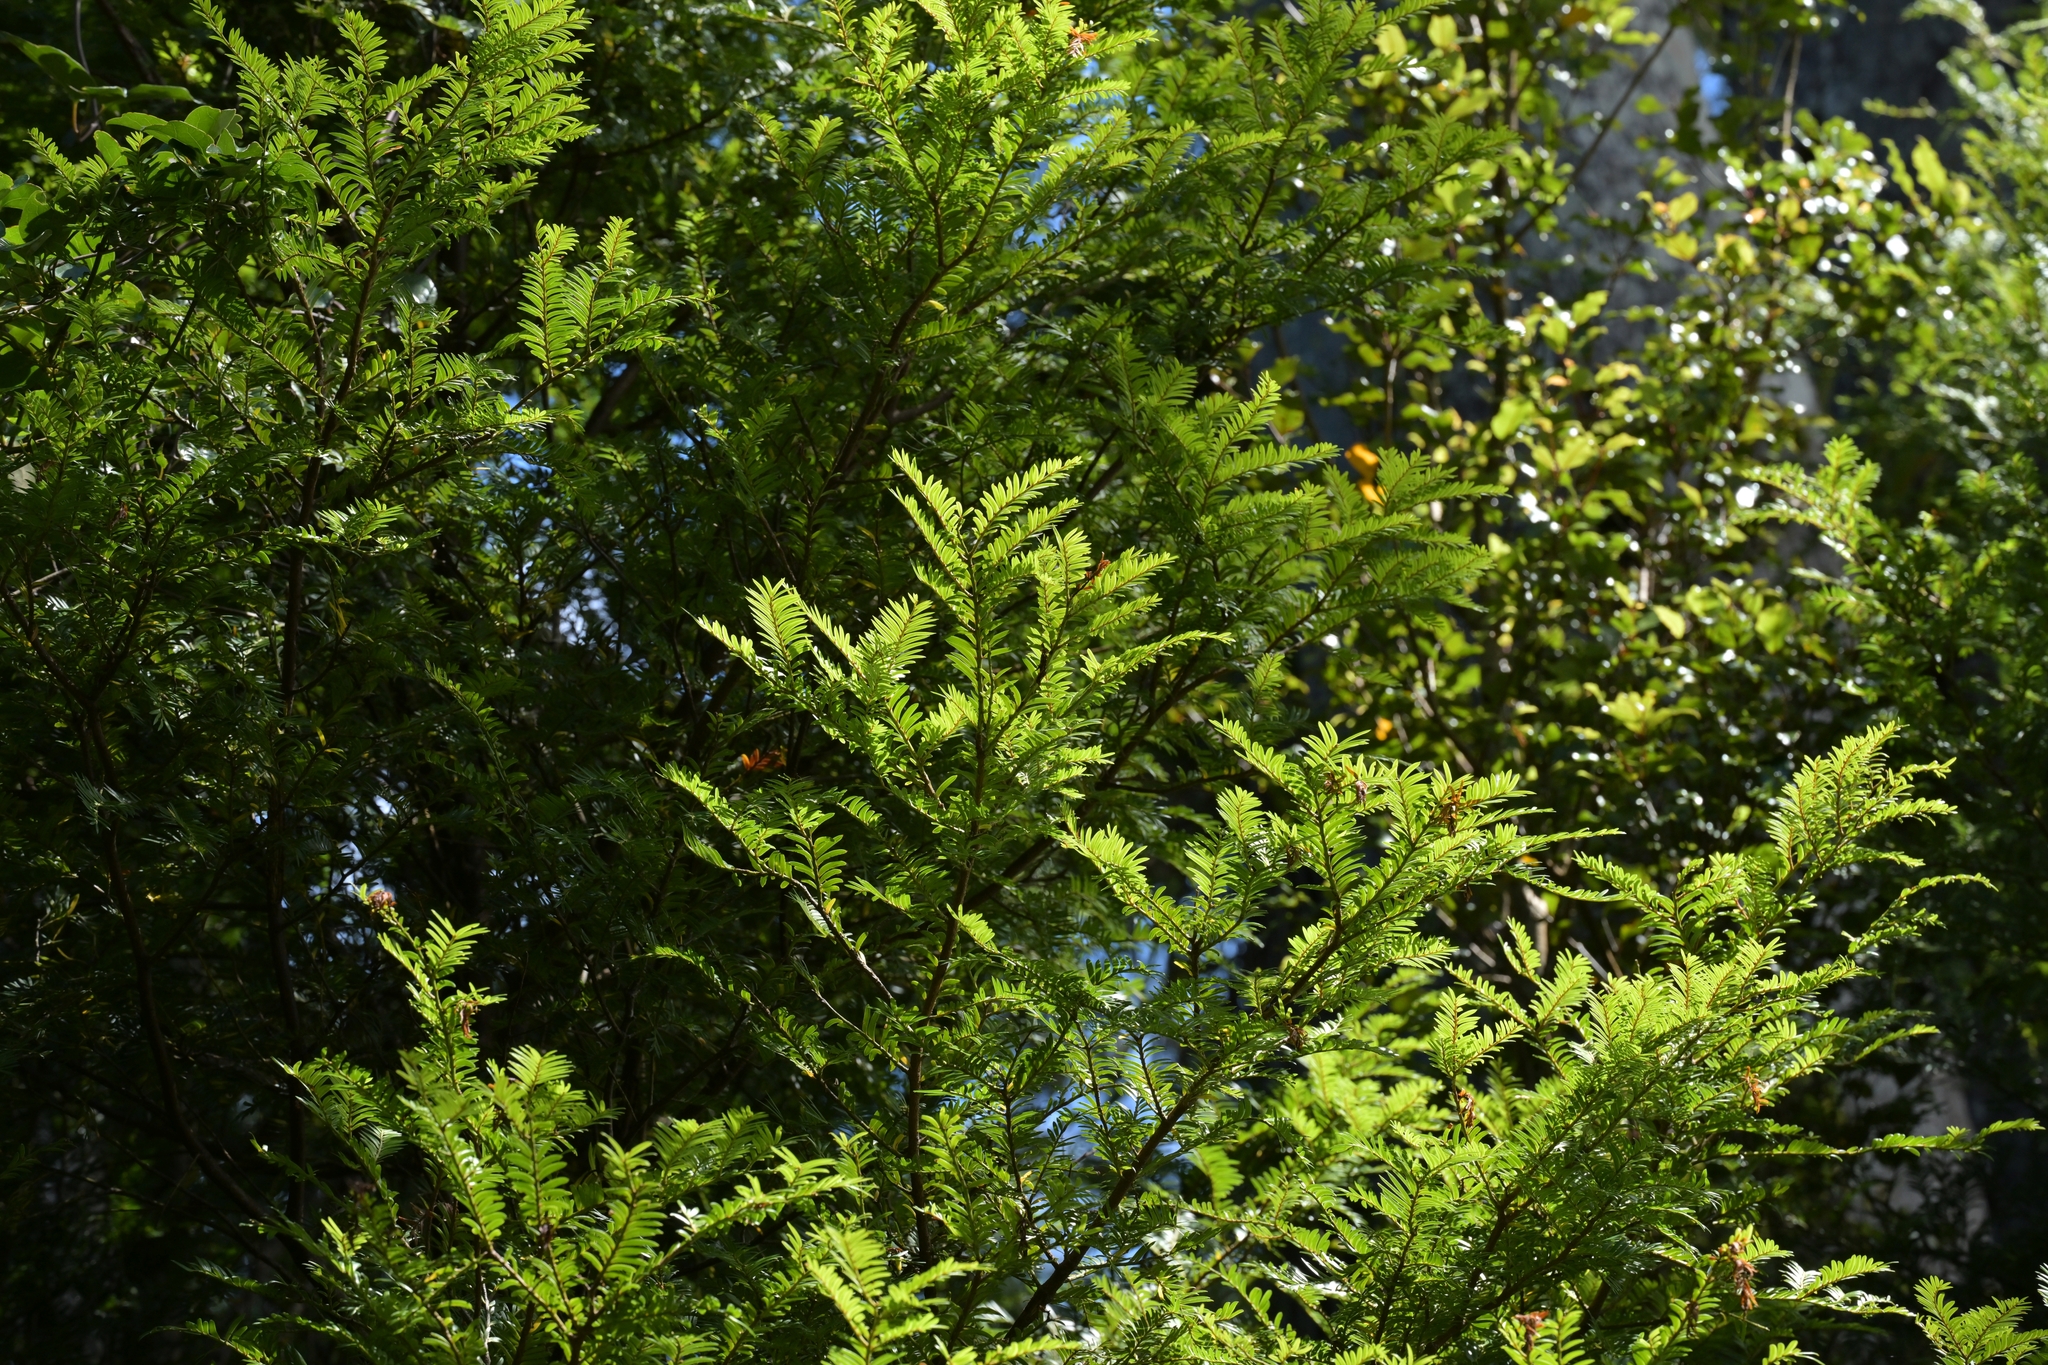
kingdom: Plantae
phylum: Tracheophyta
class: Pinopsida
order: Pinales
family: Podocarpaceae
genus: Prumnopitys
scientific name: Prumnopitys ferruginea
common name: Brown pine
